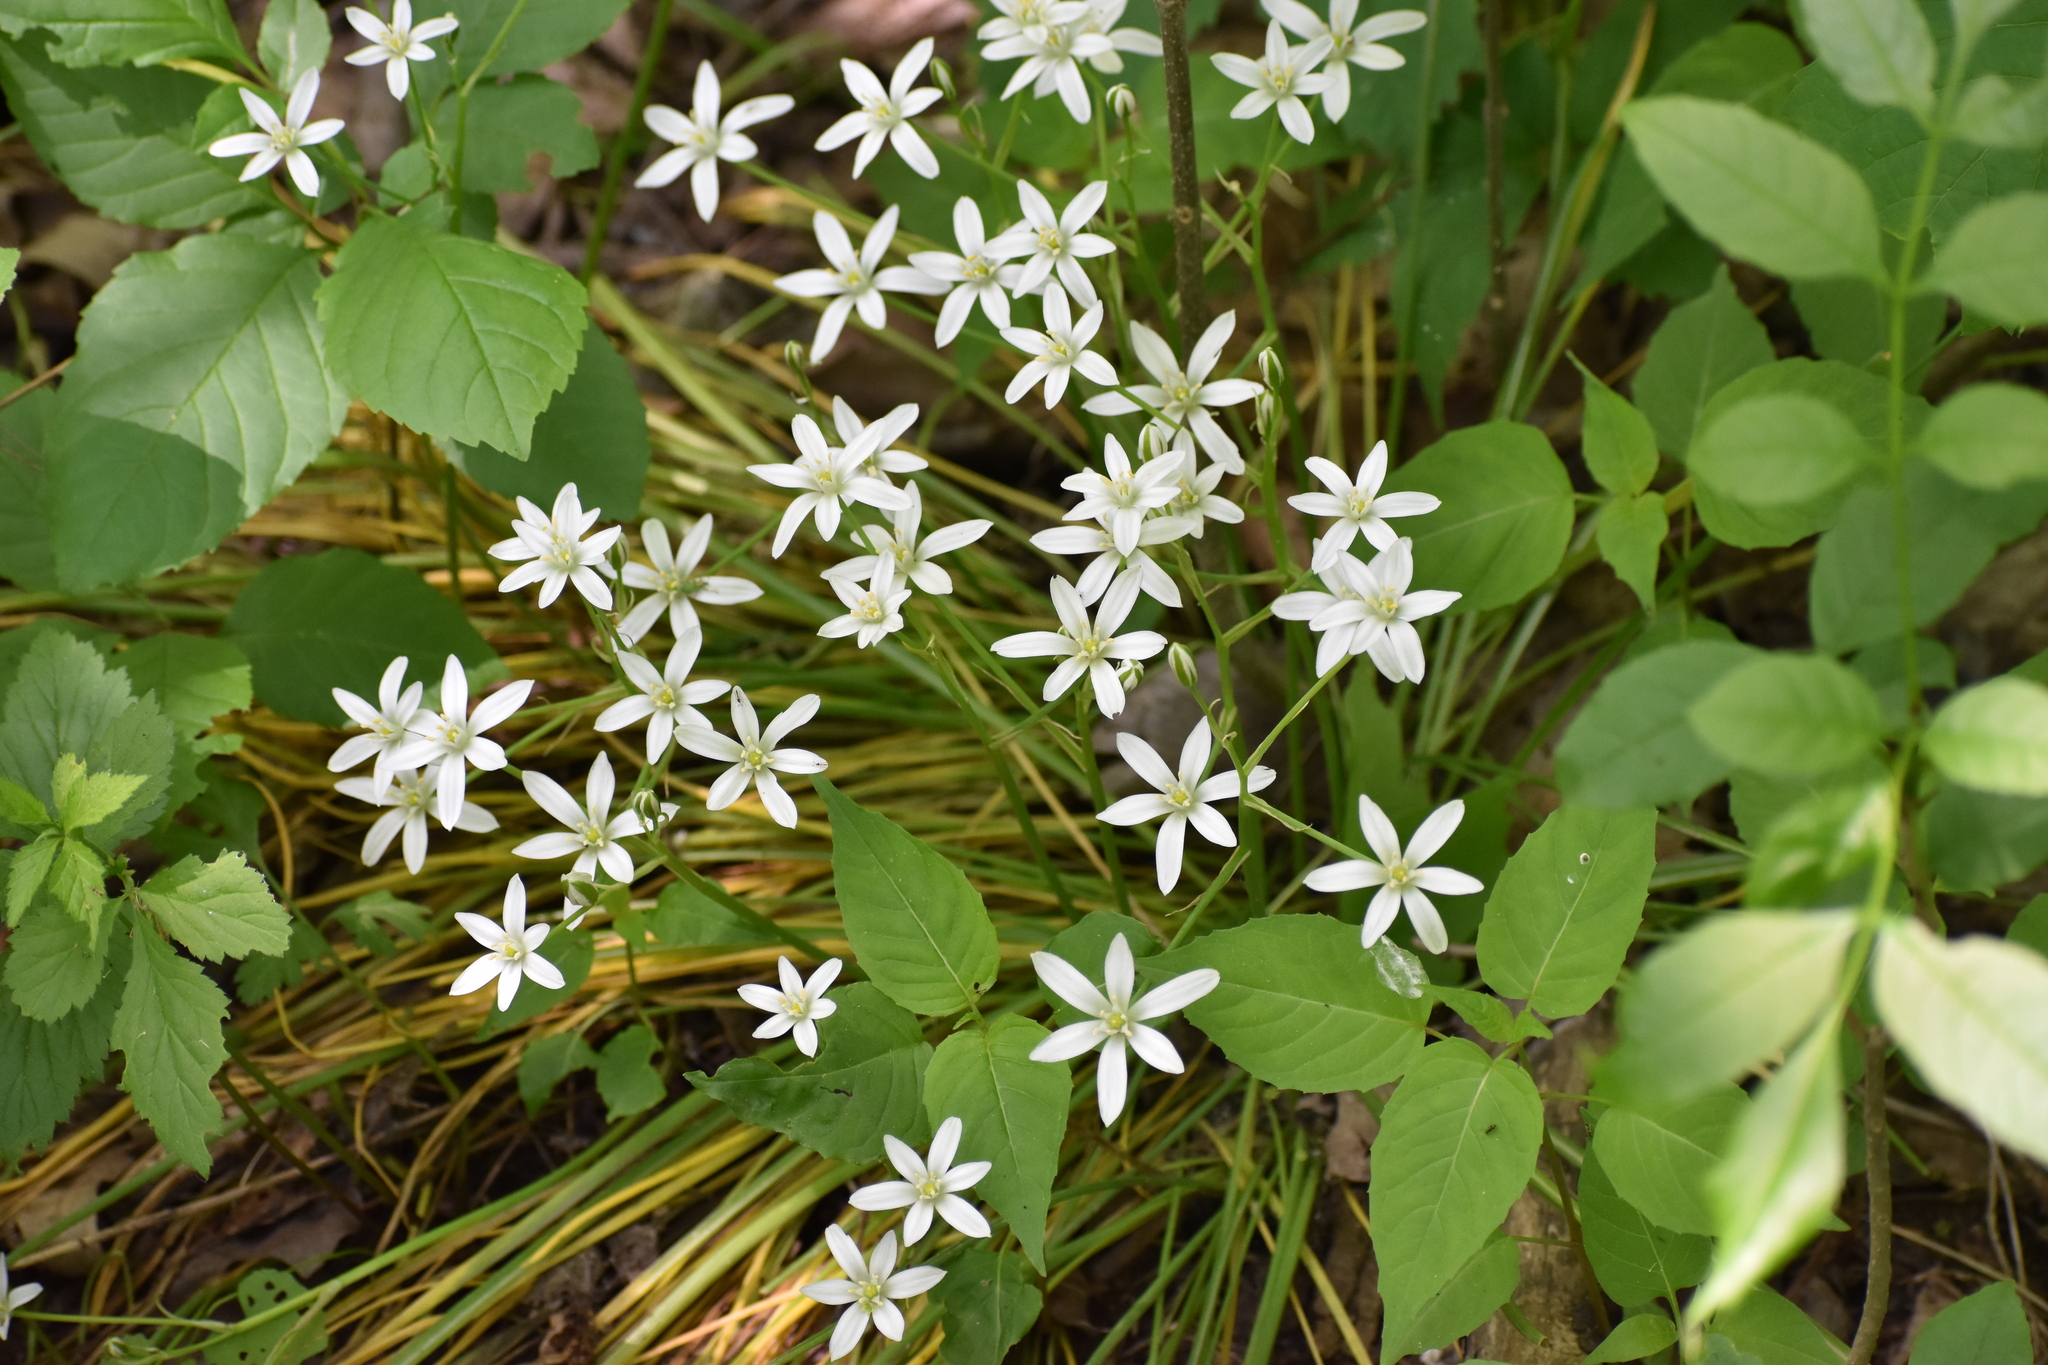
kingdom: Plantae
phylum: Tracheophyta
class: Liliopsida
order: Asparagales
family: Asparagaceae
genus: Ornithogalum
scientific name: Ornithogalum umbellatum
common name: Garden star-of-bethlehem
